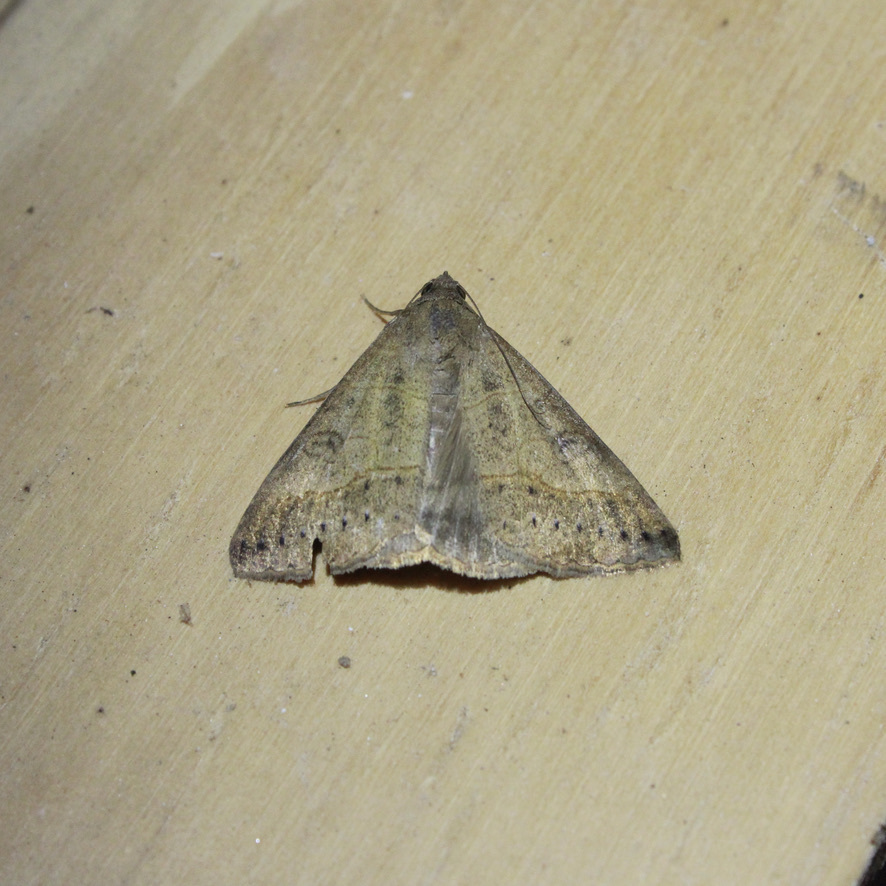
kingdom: Animalia
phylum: Arthropoda
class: Insecta
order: Lepidoptera
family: Erebidae
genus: Mocis
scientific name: Mocis latipes
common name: Striped grass looper
